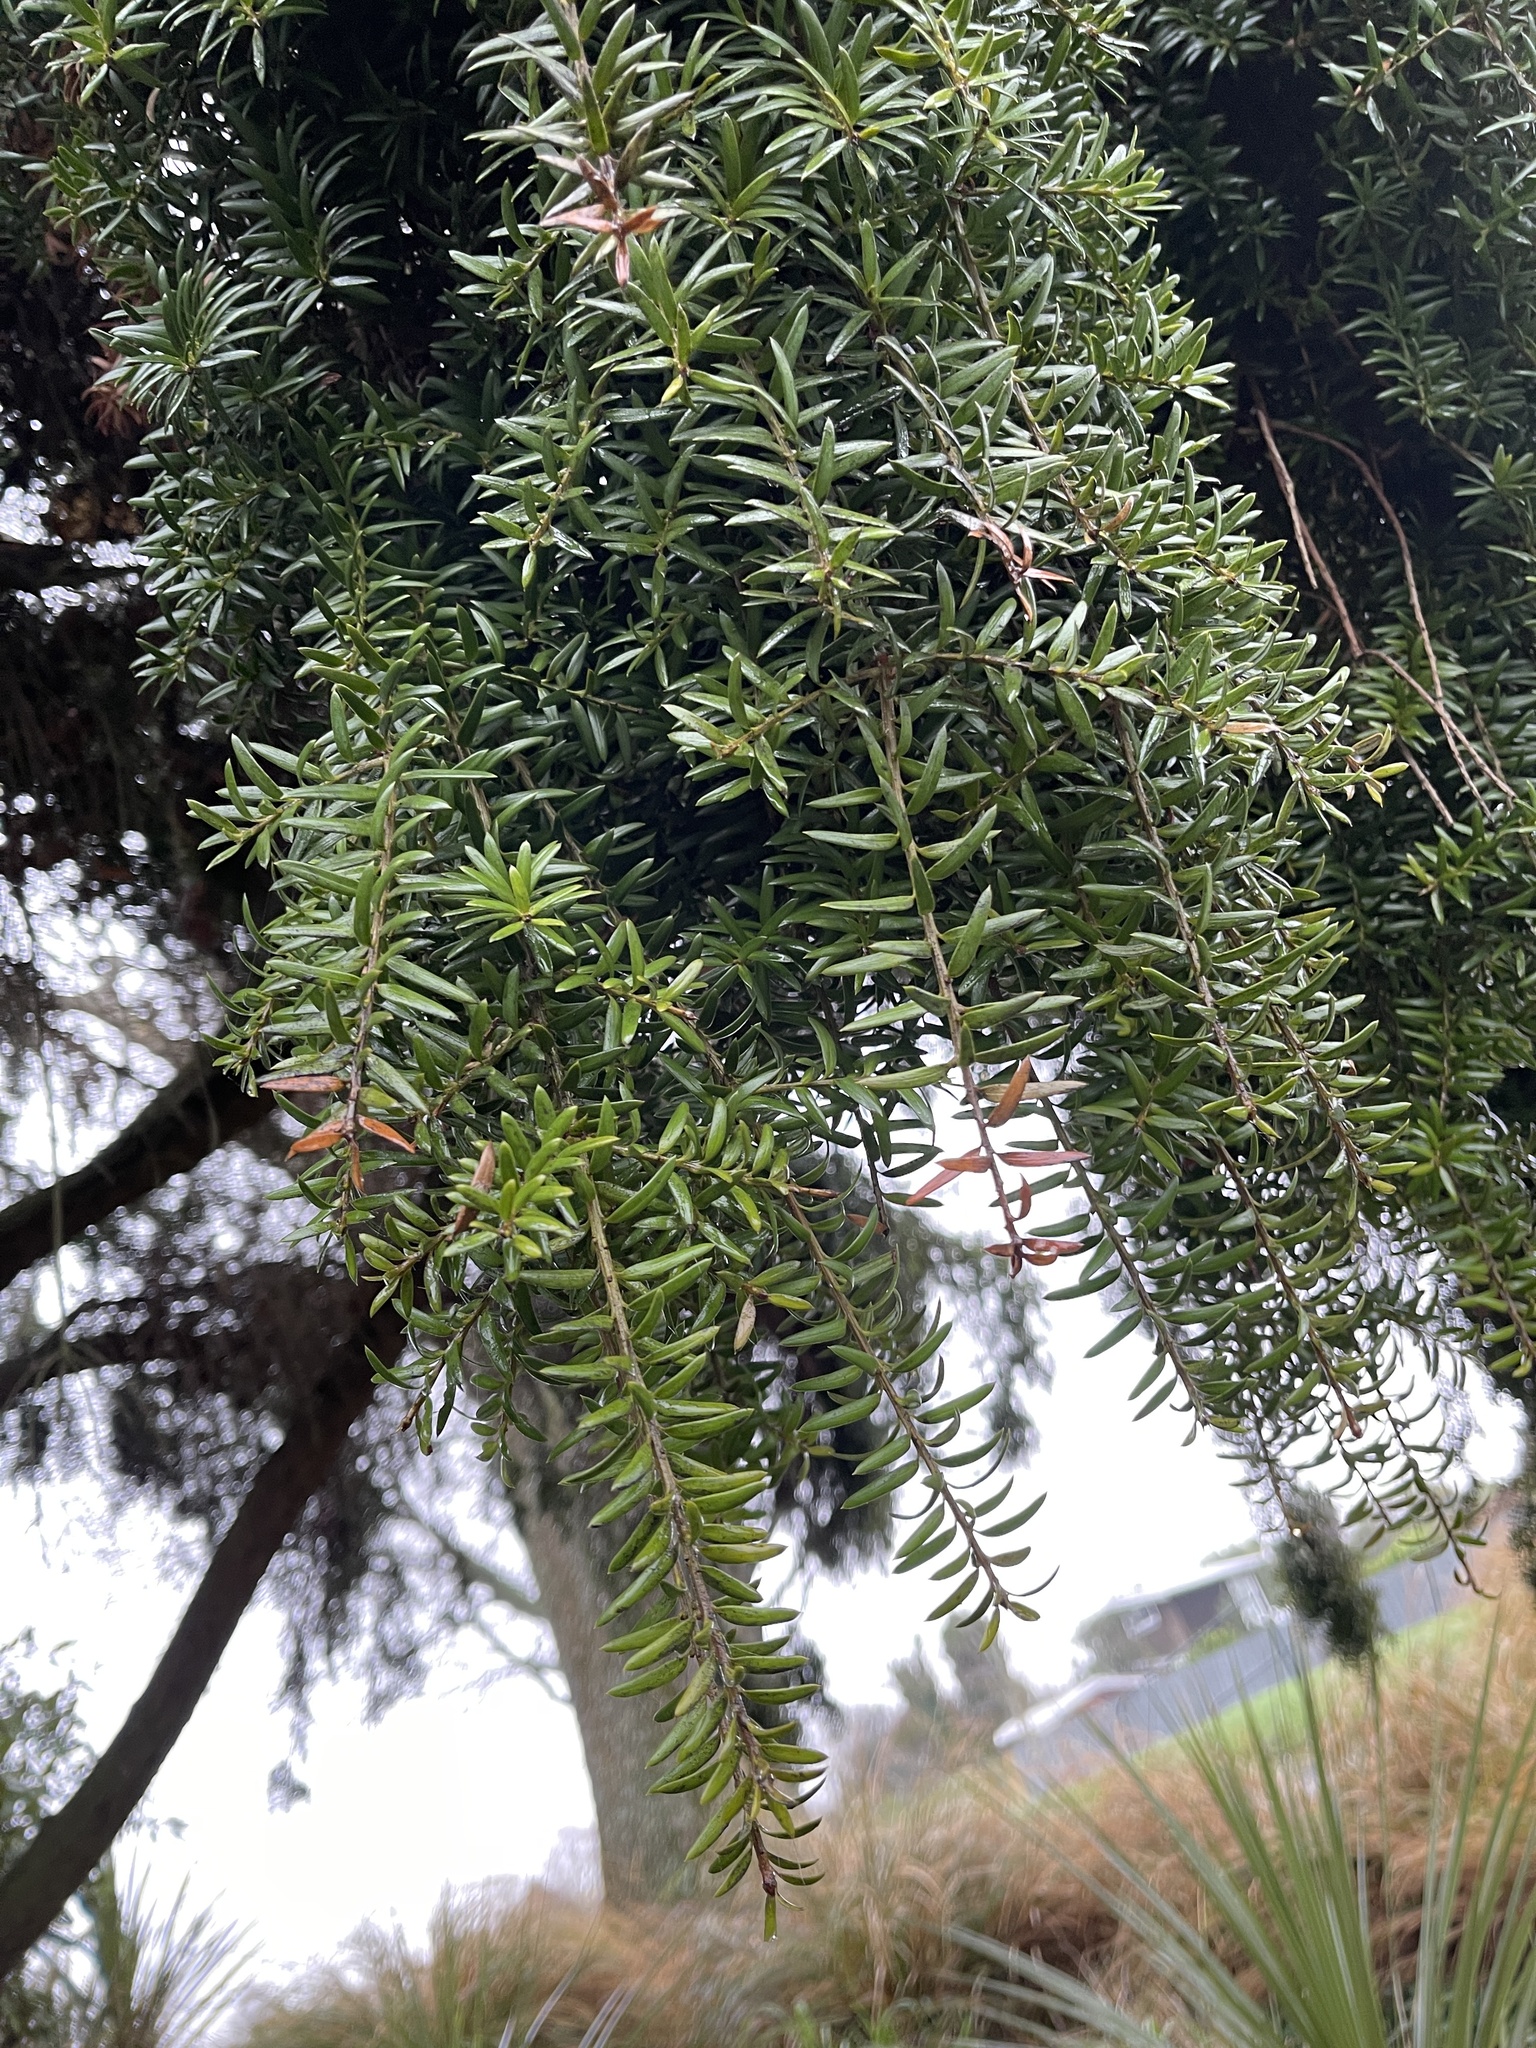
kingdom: Plantae
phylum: Tracheophyta
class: Pinopsida
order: Pinales
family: Podocarpaceae
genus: Podocarpus
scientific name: Podocarpus totara
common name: Totara
